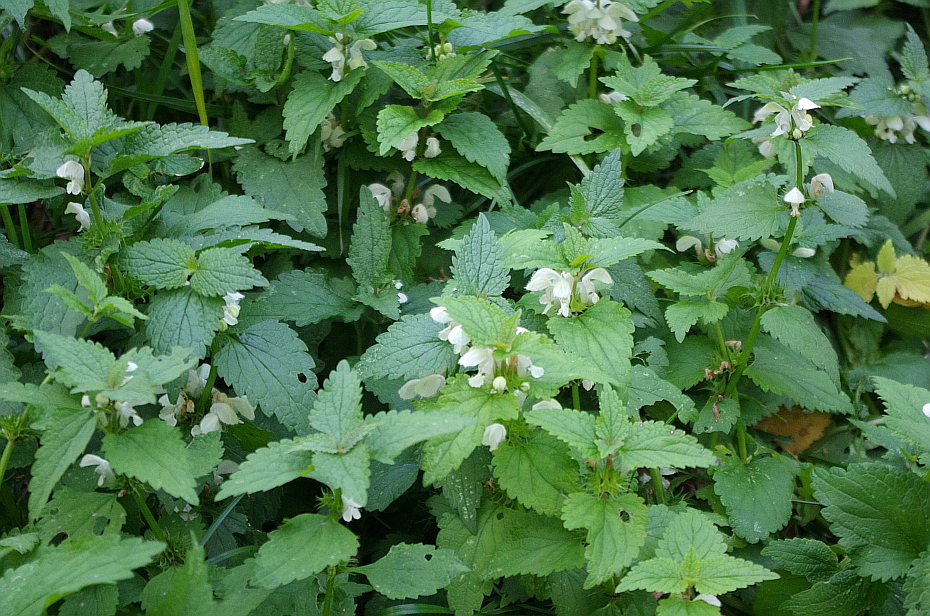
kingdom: Plantae
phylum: Tracheophyta
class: Magnoliopsida
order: Lamiales
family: Lamiaceae
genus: Lamium
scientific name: Lamium album
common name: White dead-nettle
